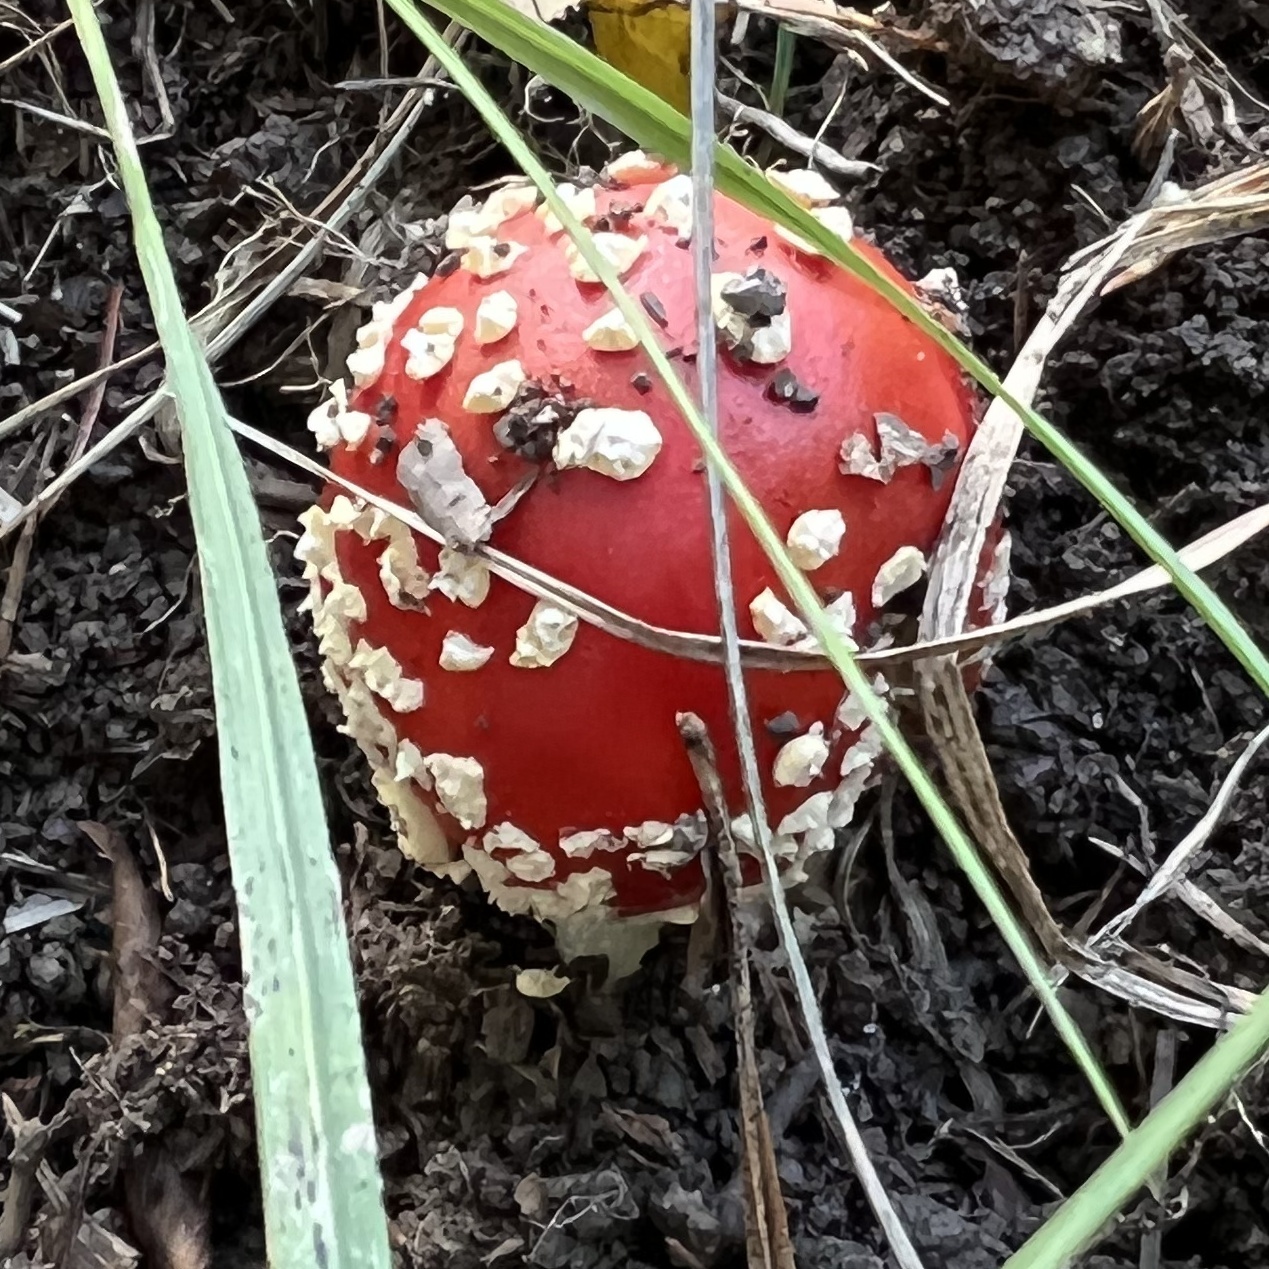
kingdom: Fungi
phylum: Basidiomycota
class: Agaricomycetes
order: Agaricales
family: Amanitaceae
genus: Amanita
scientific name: Amanita muscaria
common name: Fly agaric
